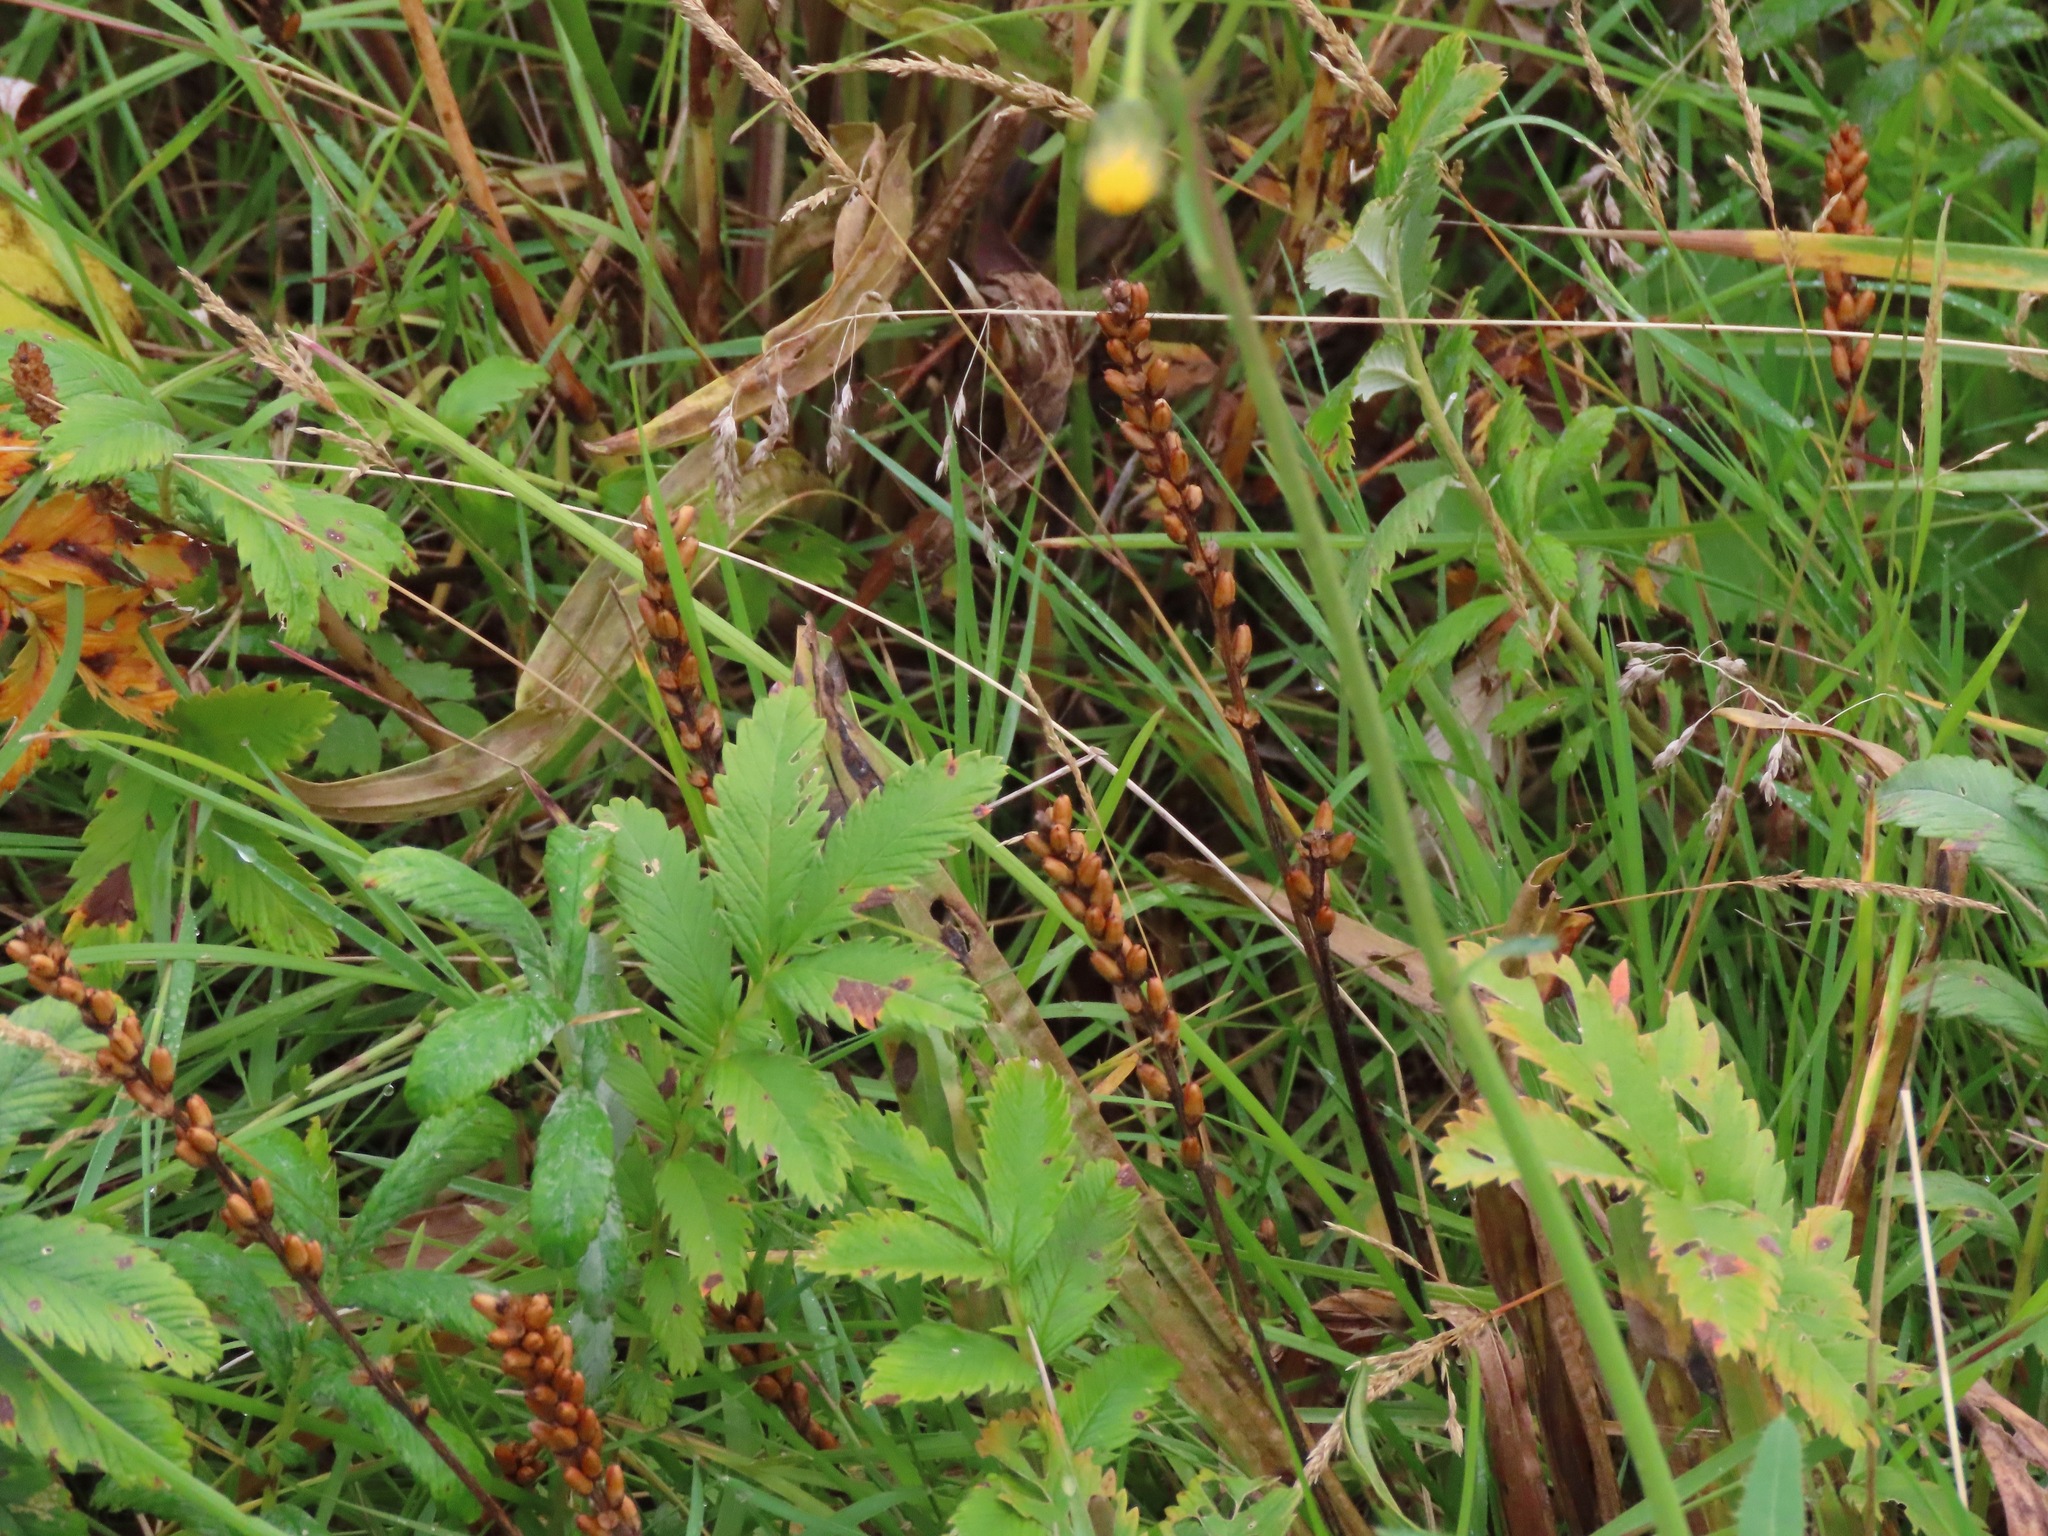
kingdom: Plantae
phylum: Tracheophyta
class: Magnoliopsida
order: Rosales
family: Rosaceae
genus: Argentina
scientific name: Argentina anserina
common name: Common silverweed
